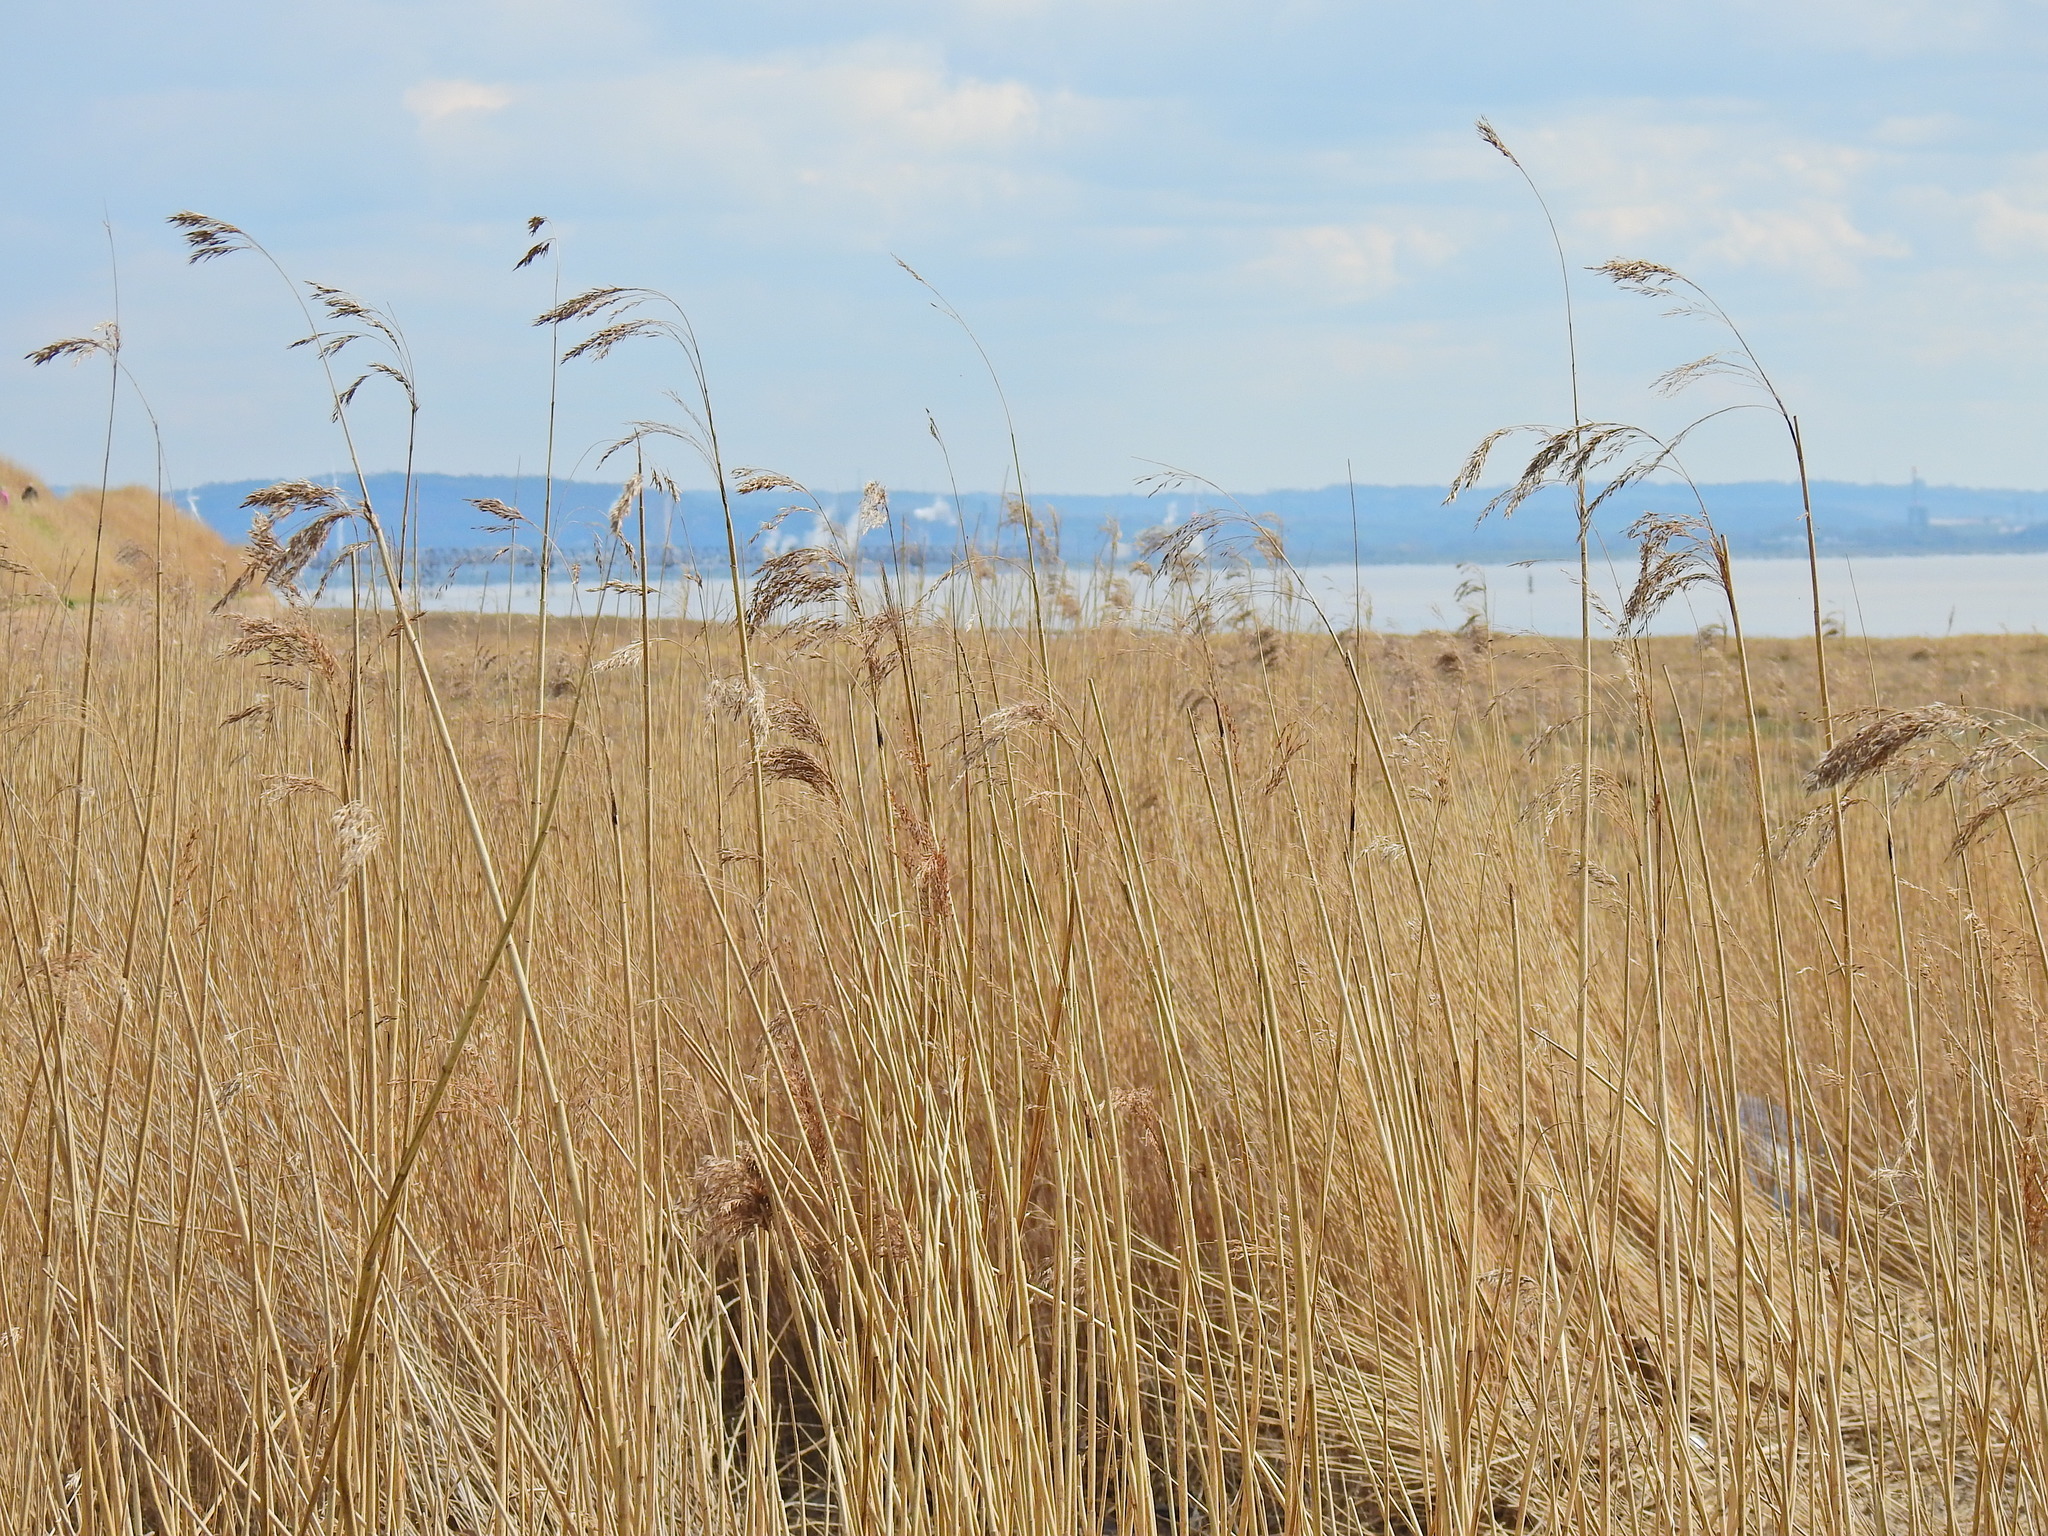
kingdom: Plantae
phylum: Tracheophyta
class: Liliopsida
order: Poales
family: Poaceae
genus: Phragmites
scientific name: Phragmites australis
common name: Common reed
